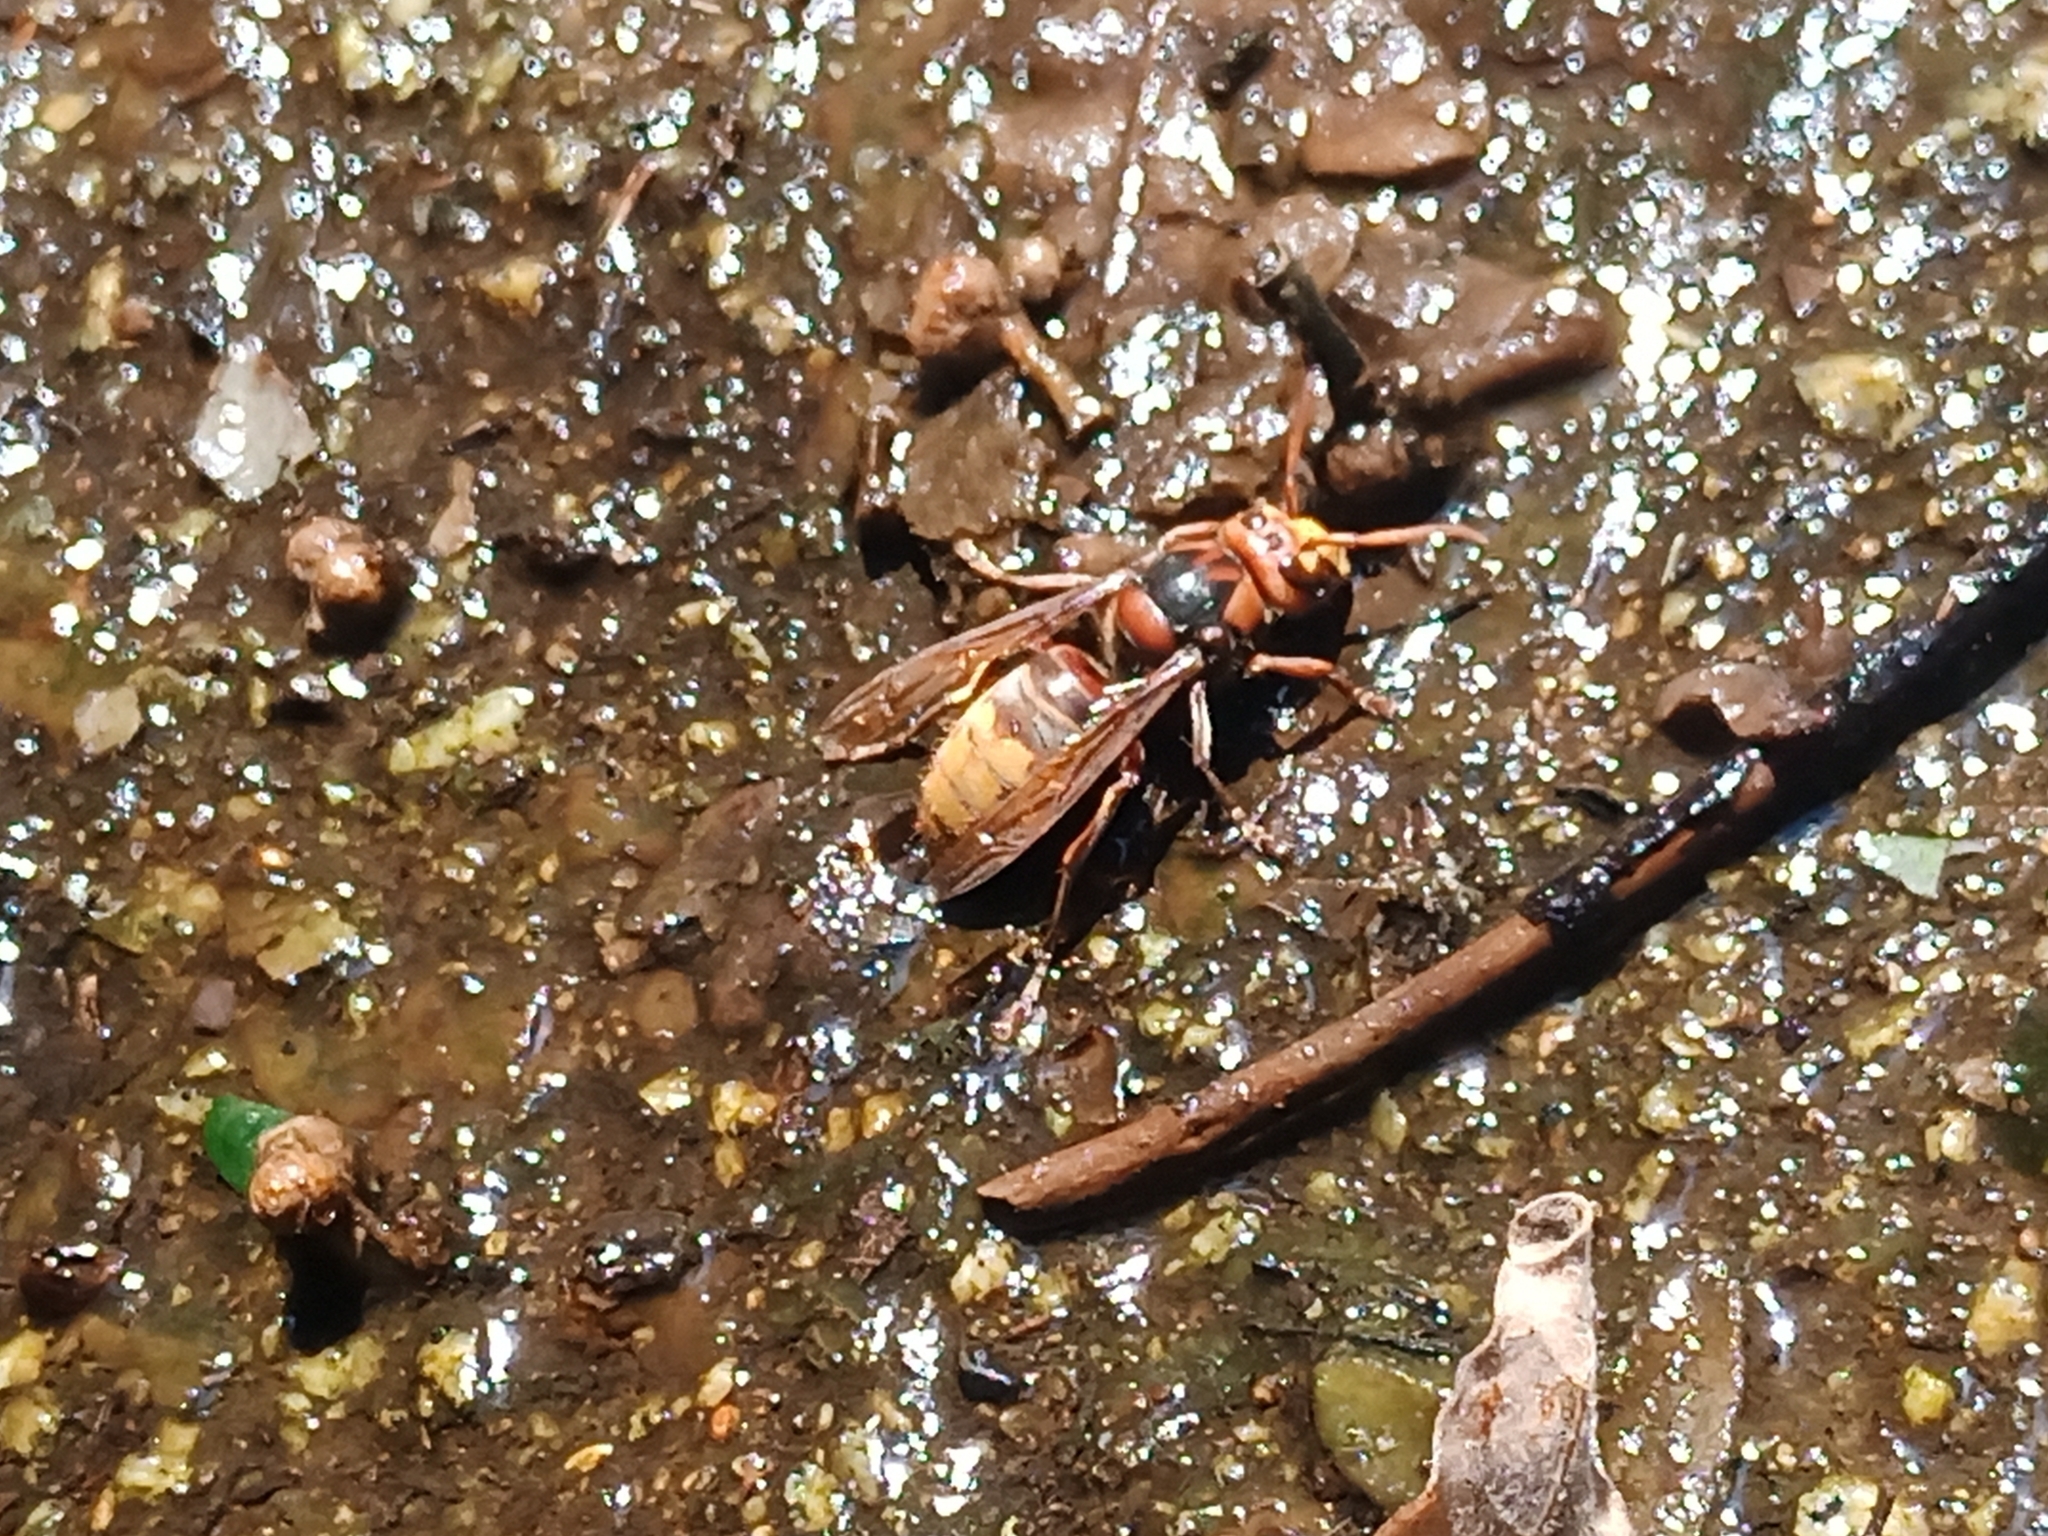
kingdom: Animalia
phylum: Arthropoda
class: Insecta
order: Hymenoptera
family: Vespidae
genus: Vespa
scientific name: Vespa crabro
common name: Hornet
